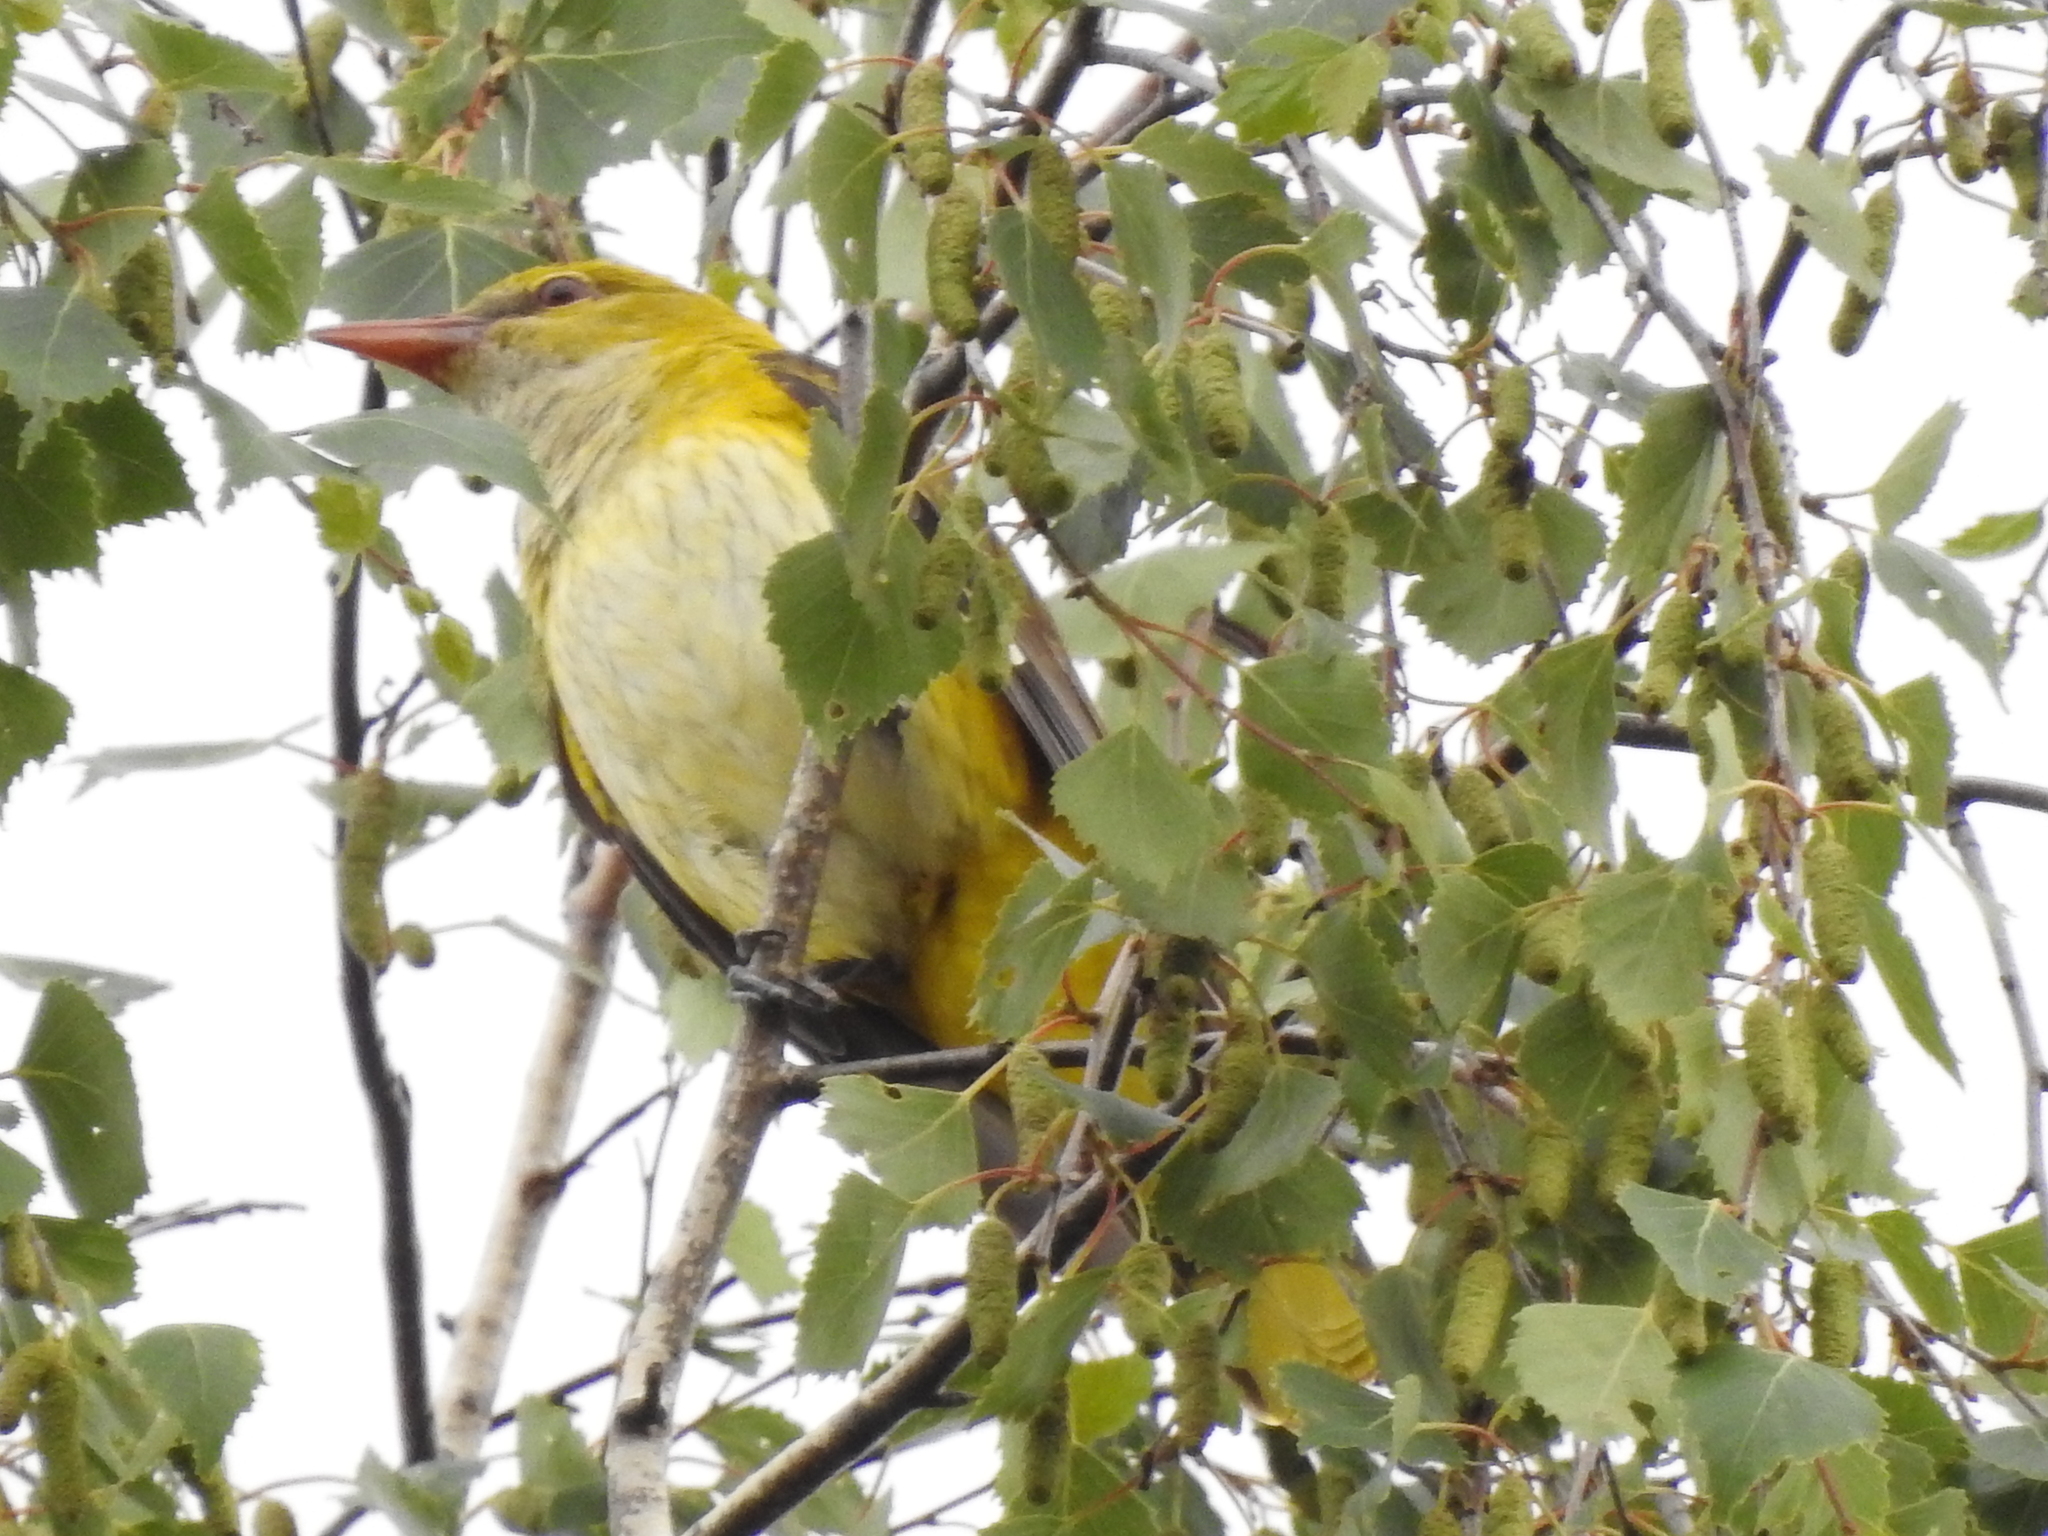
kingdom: Animalia
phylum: Chordata
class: Aves
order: Passeriformes
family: Oriolidae
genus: Oriolus
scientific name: Oriolus oriolus
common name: Eurasian golden oriole
